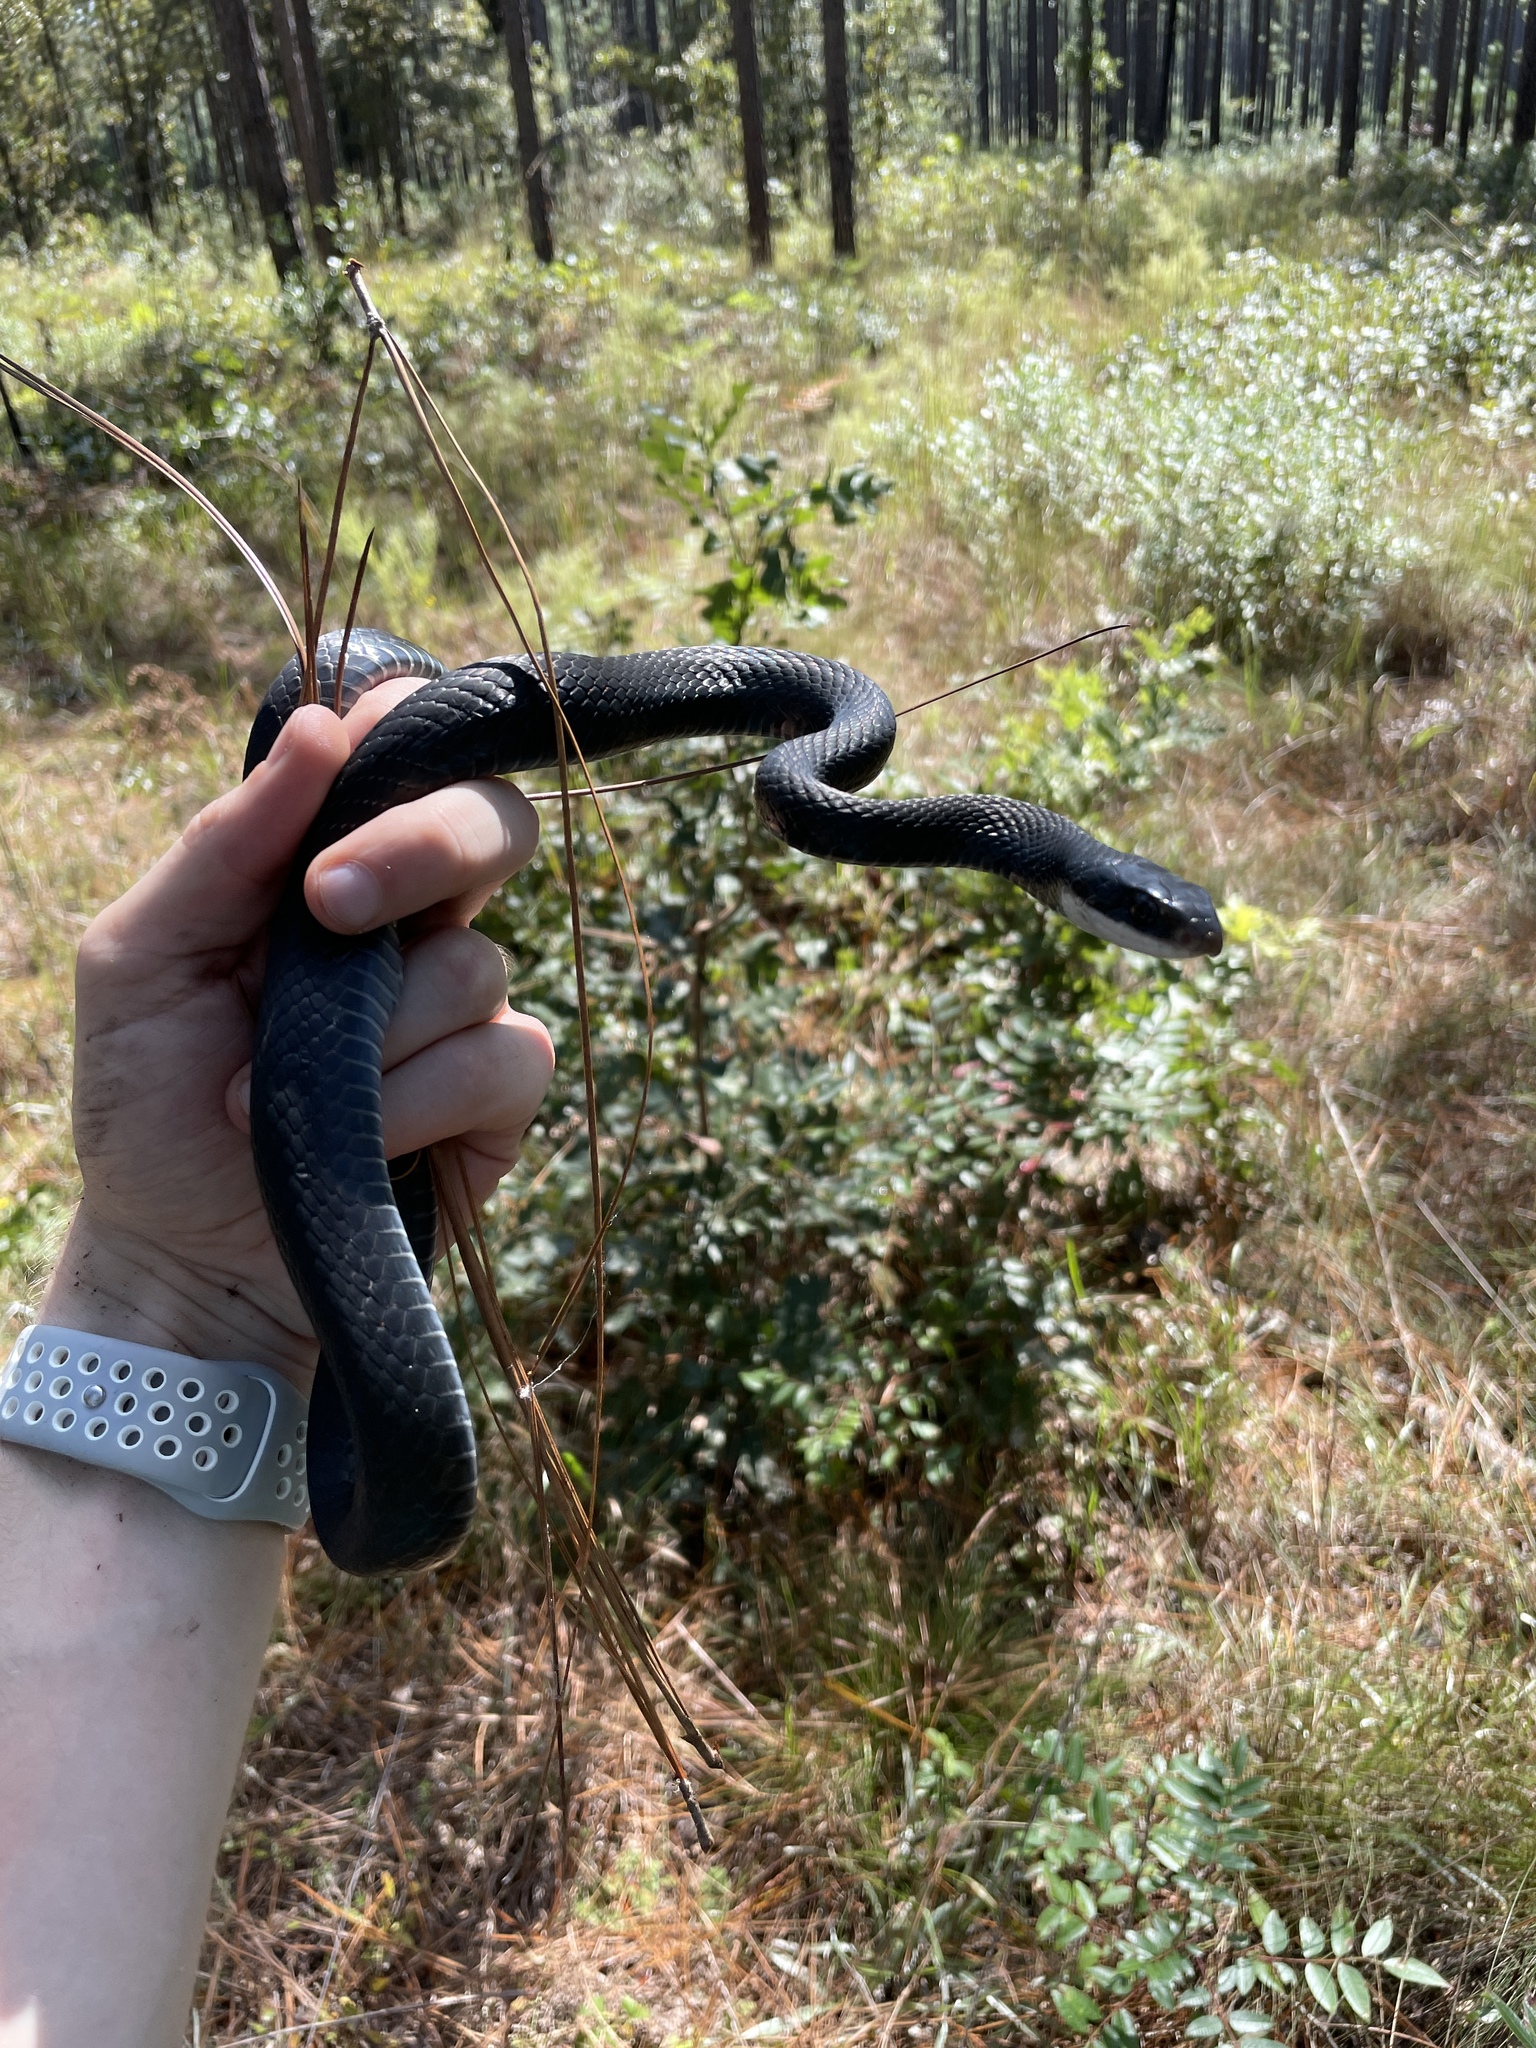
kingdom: Animalia
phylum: Chordata
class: Squamata
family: Colubridae
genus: Coluber
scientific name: Coluber constrictor
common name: Eastern racer
